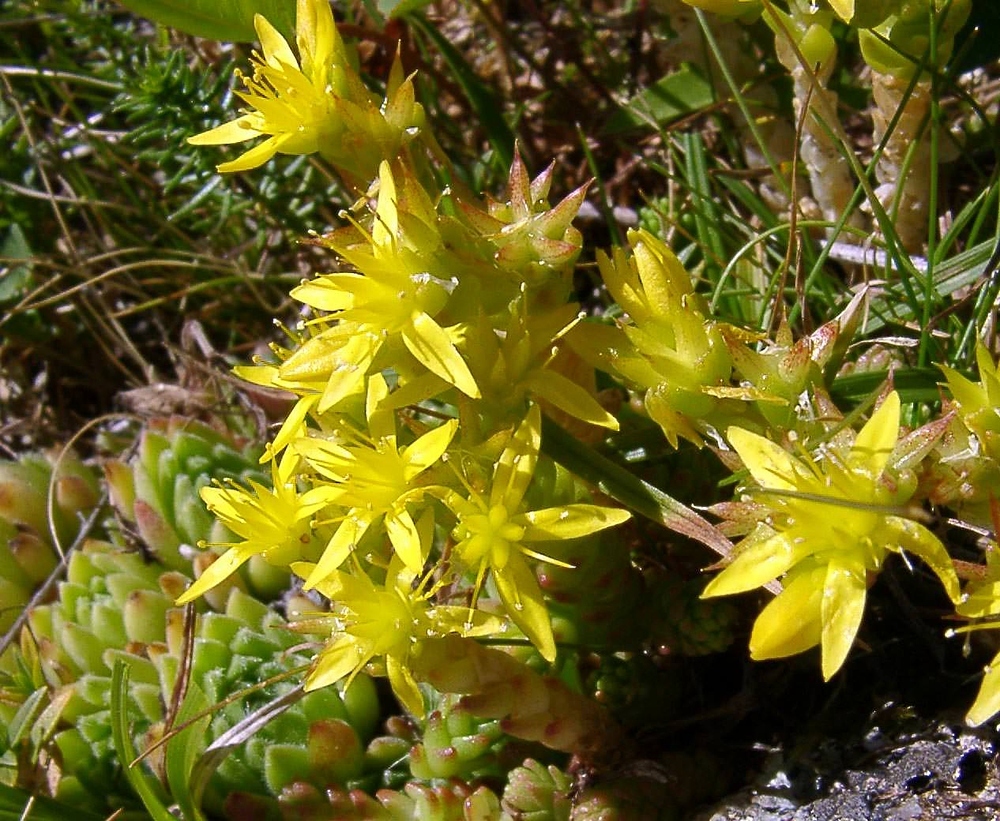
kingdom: Plantae
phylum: Tracheophyta
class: Magnoliopsida
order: Saxifragales
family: Crassulaceae
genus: Sedum
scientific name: Sedum acre
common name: Biting stonecrop
